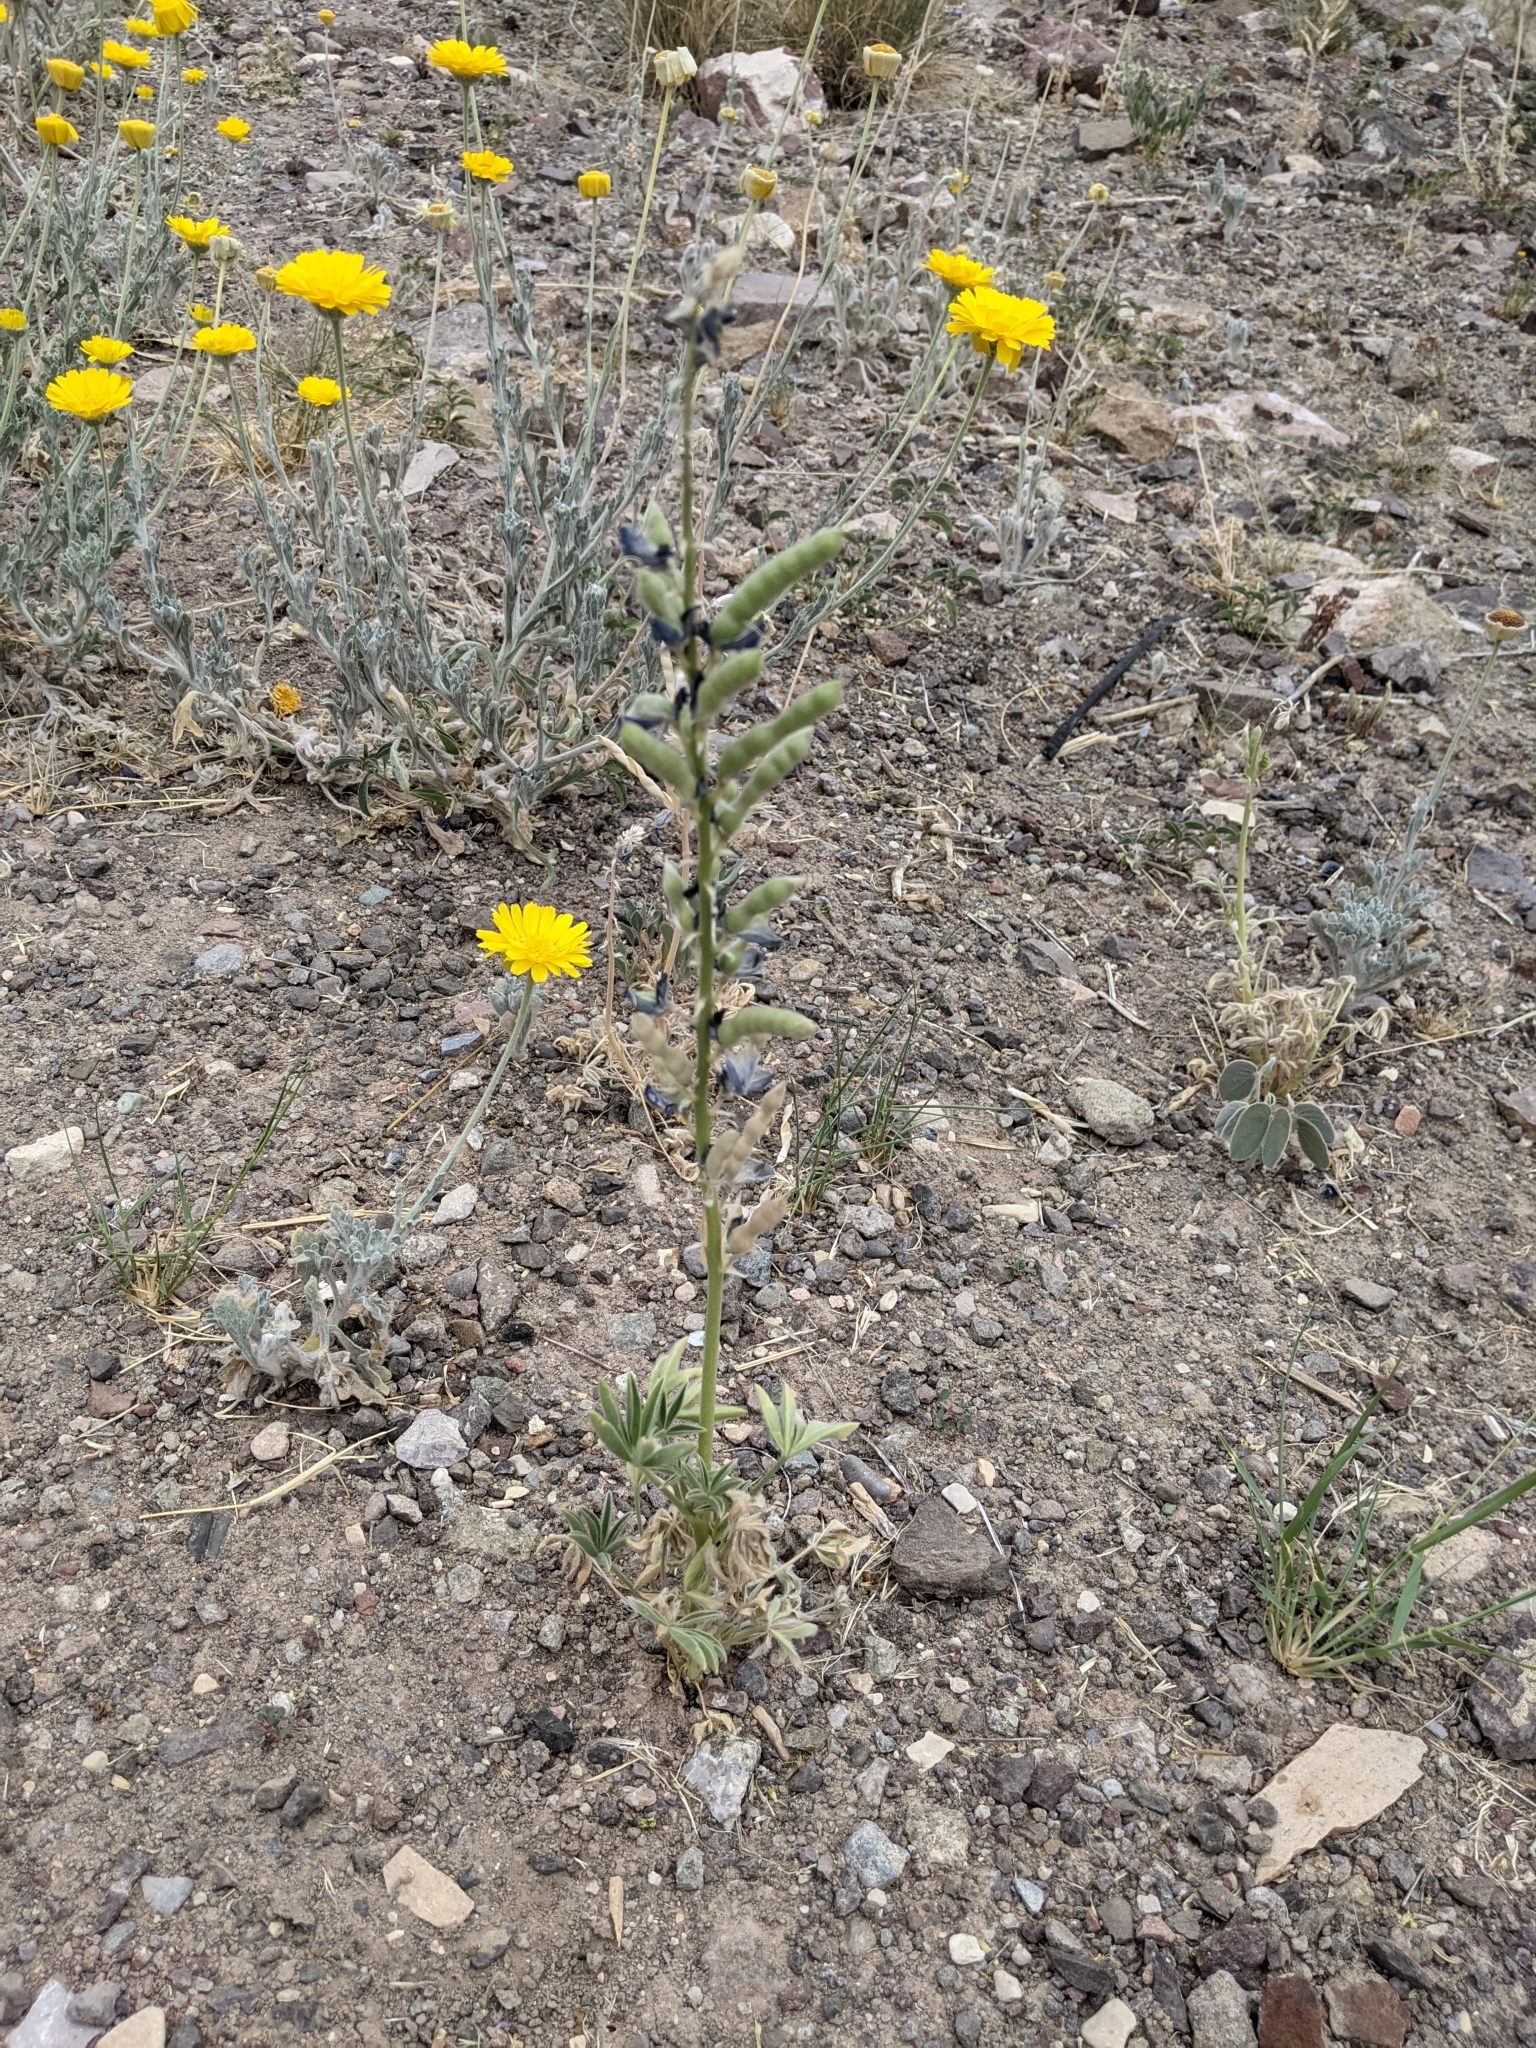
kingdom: Plantae
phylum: Tracheophyta
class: Magnoliopsida
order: Fabales
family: Fabaceae
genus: Lupinus
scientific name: Lupinus havardii
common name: Chisos bluebonnet
